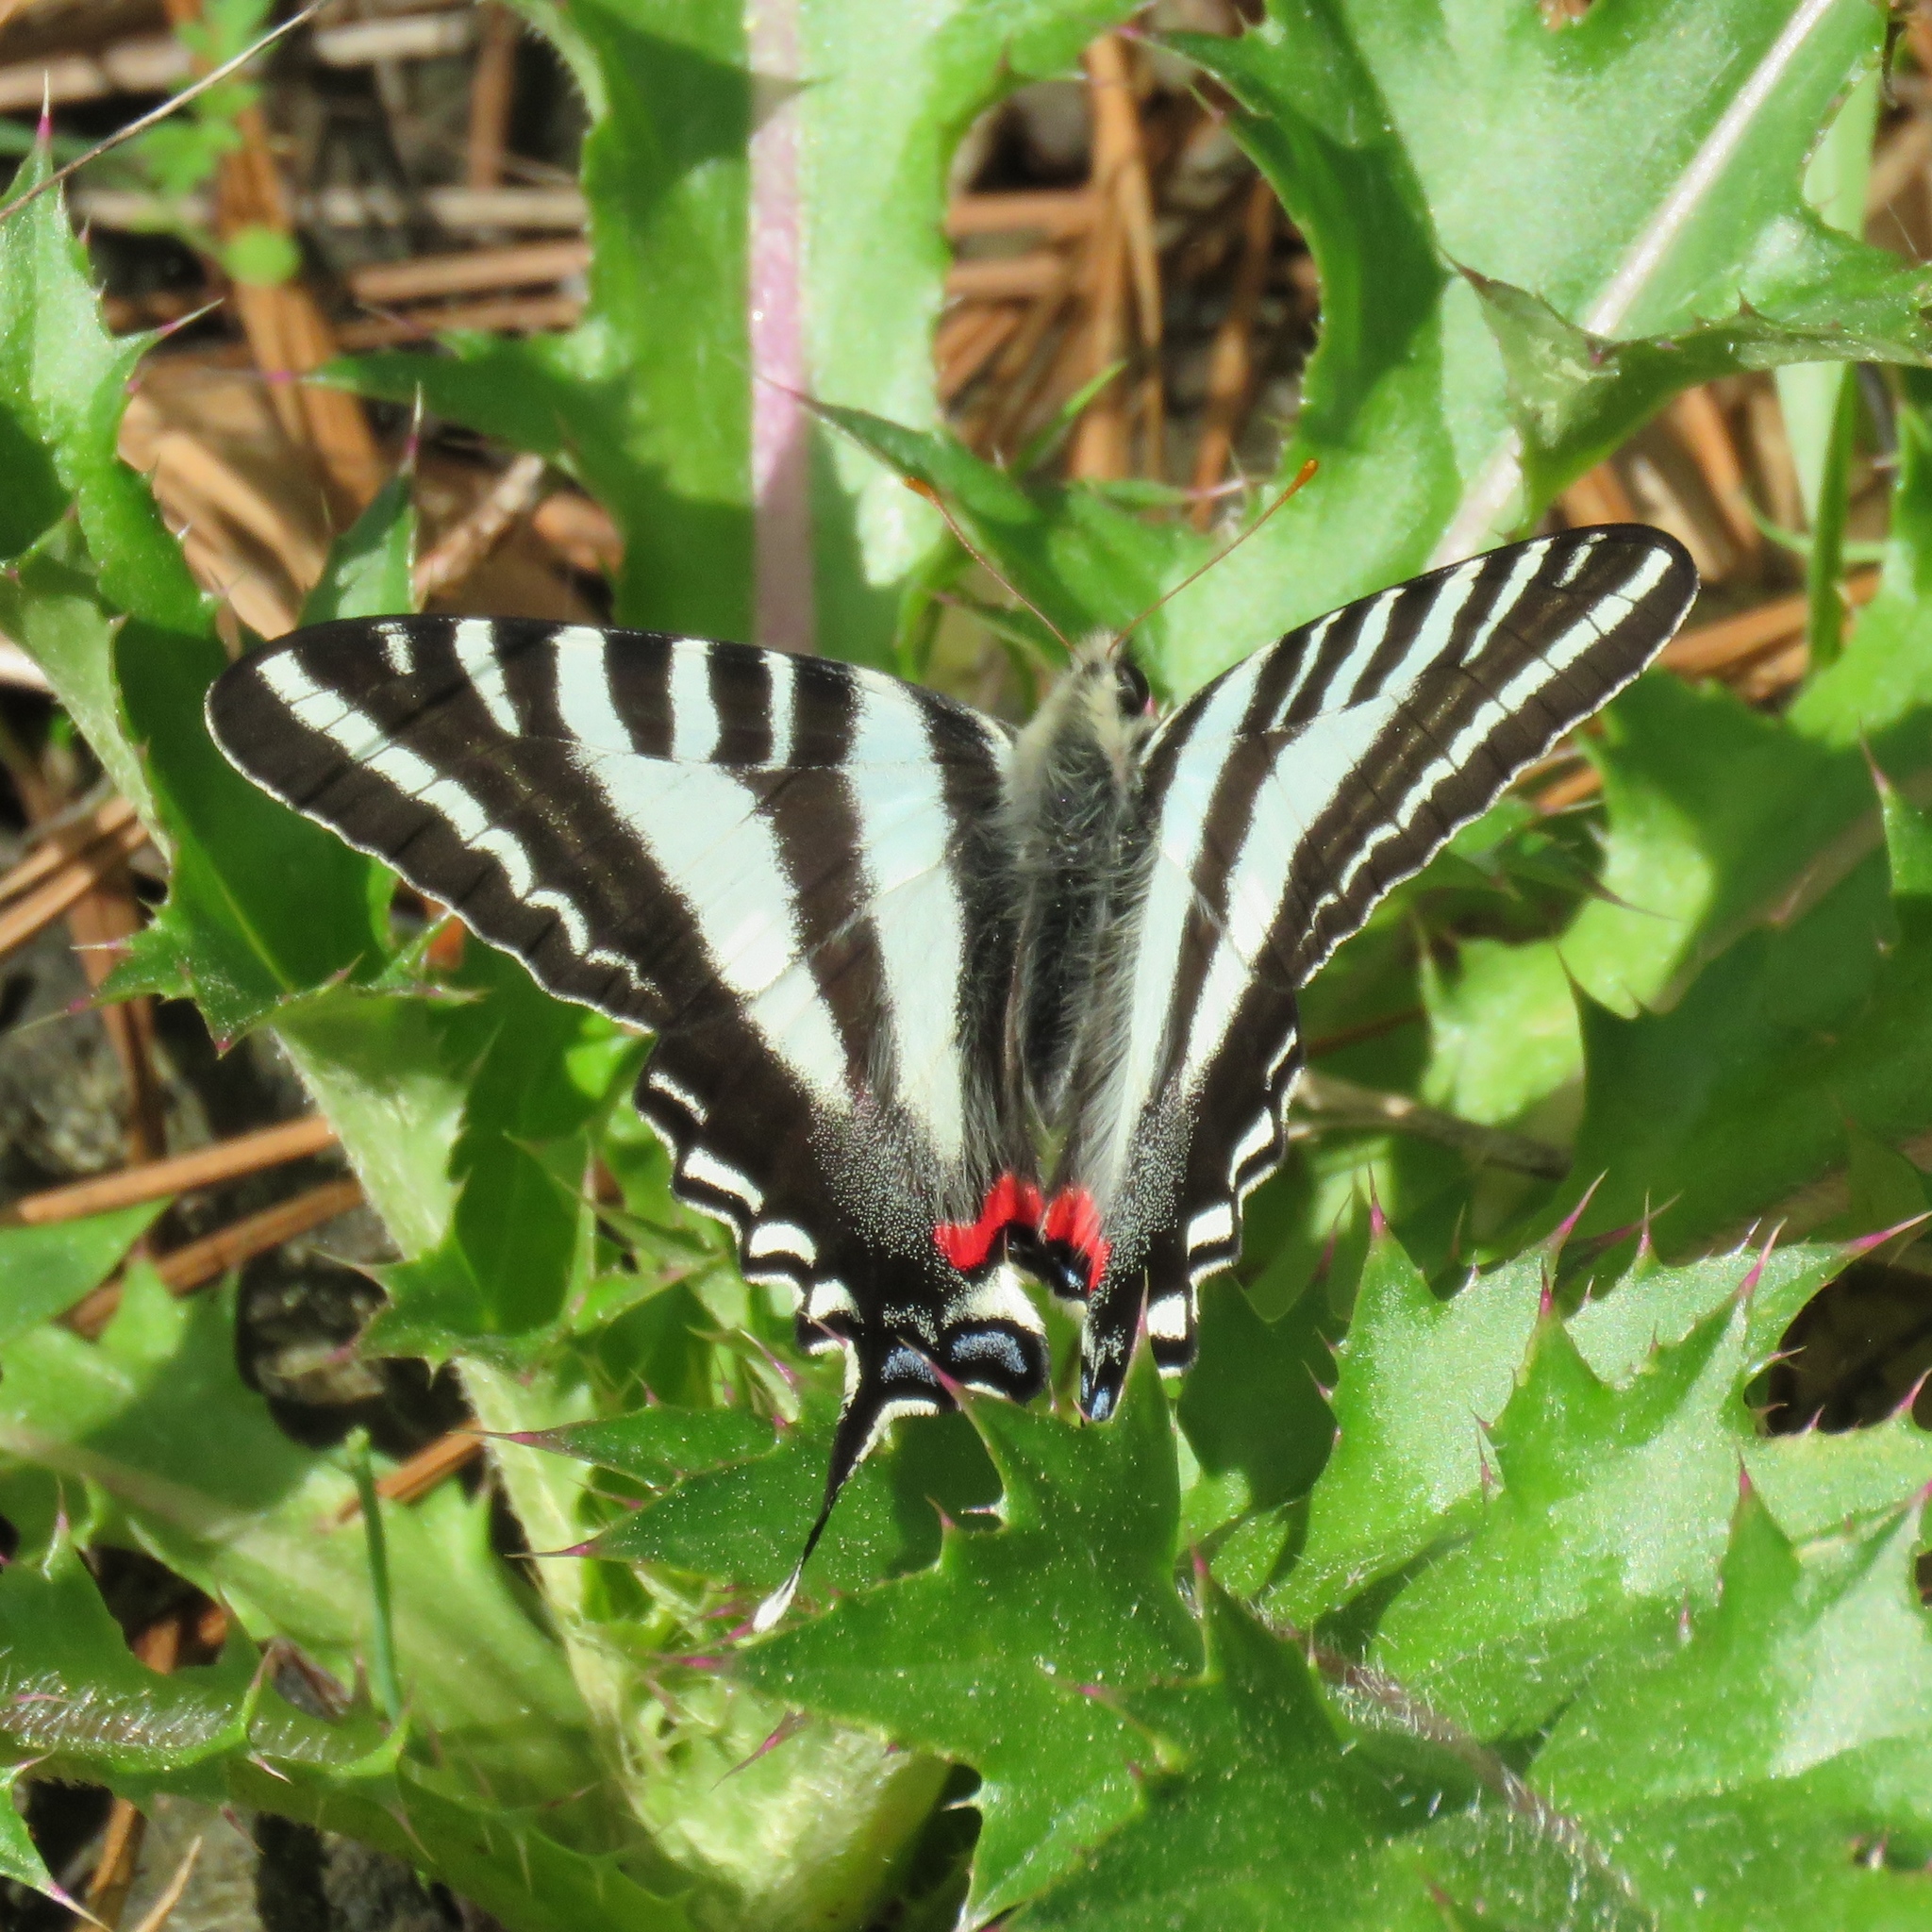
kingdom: Animalia
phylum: Arthropoda
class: Insecta
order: Lepidoptera
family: Papilionidae
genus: Protographium
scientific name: Protographium marcellus
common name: Zebra swallowtail
